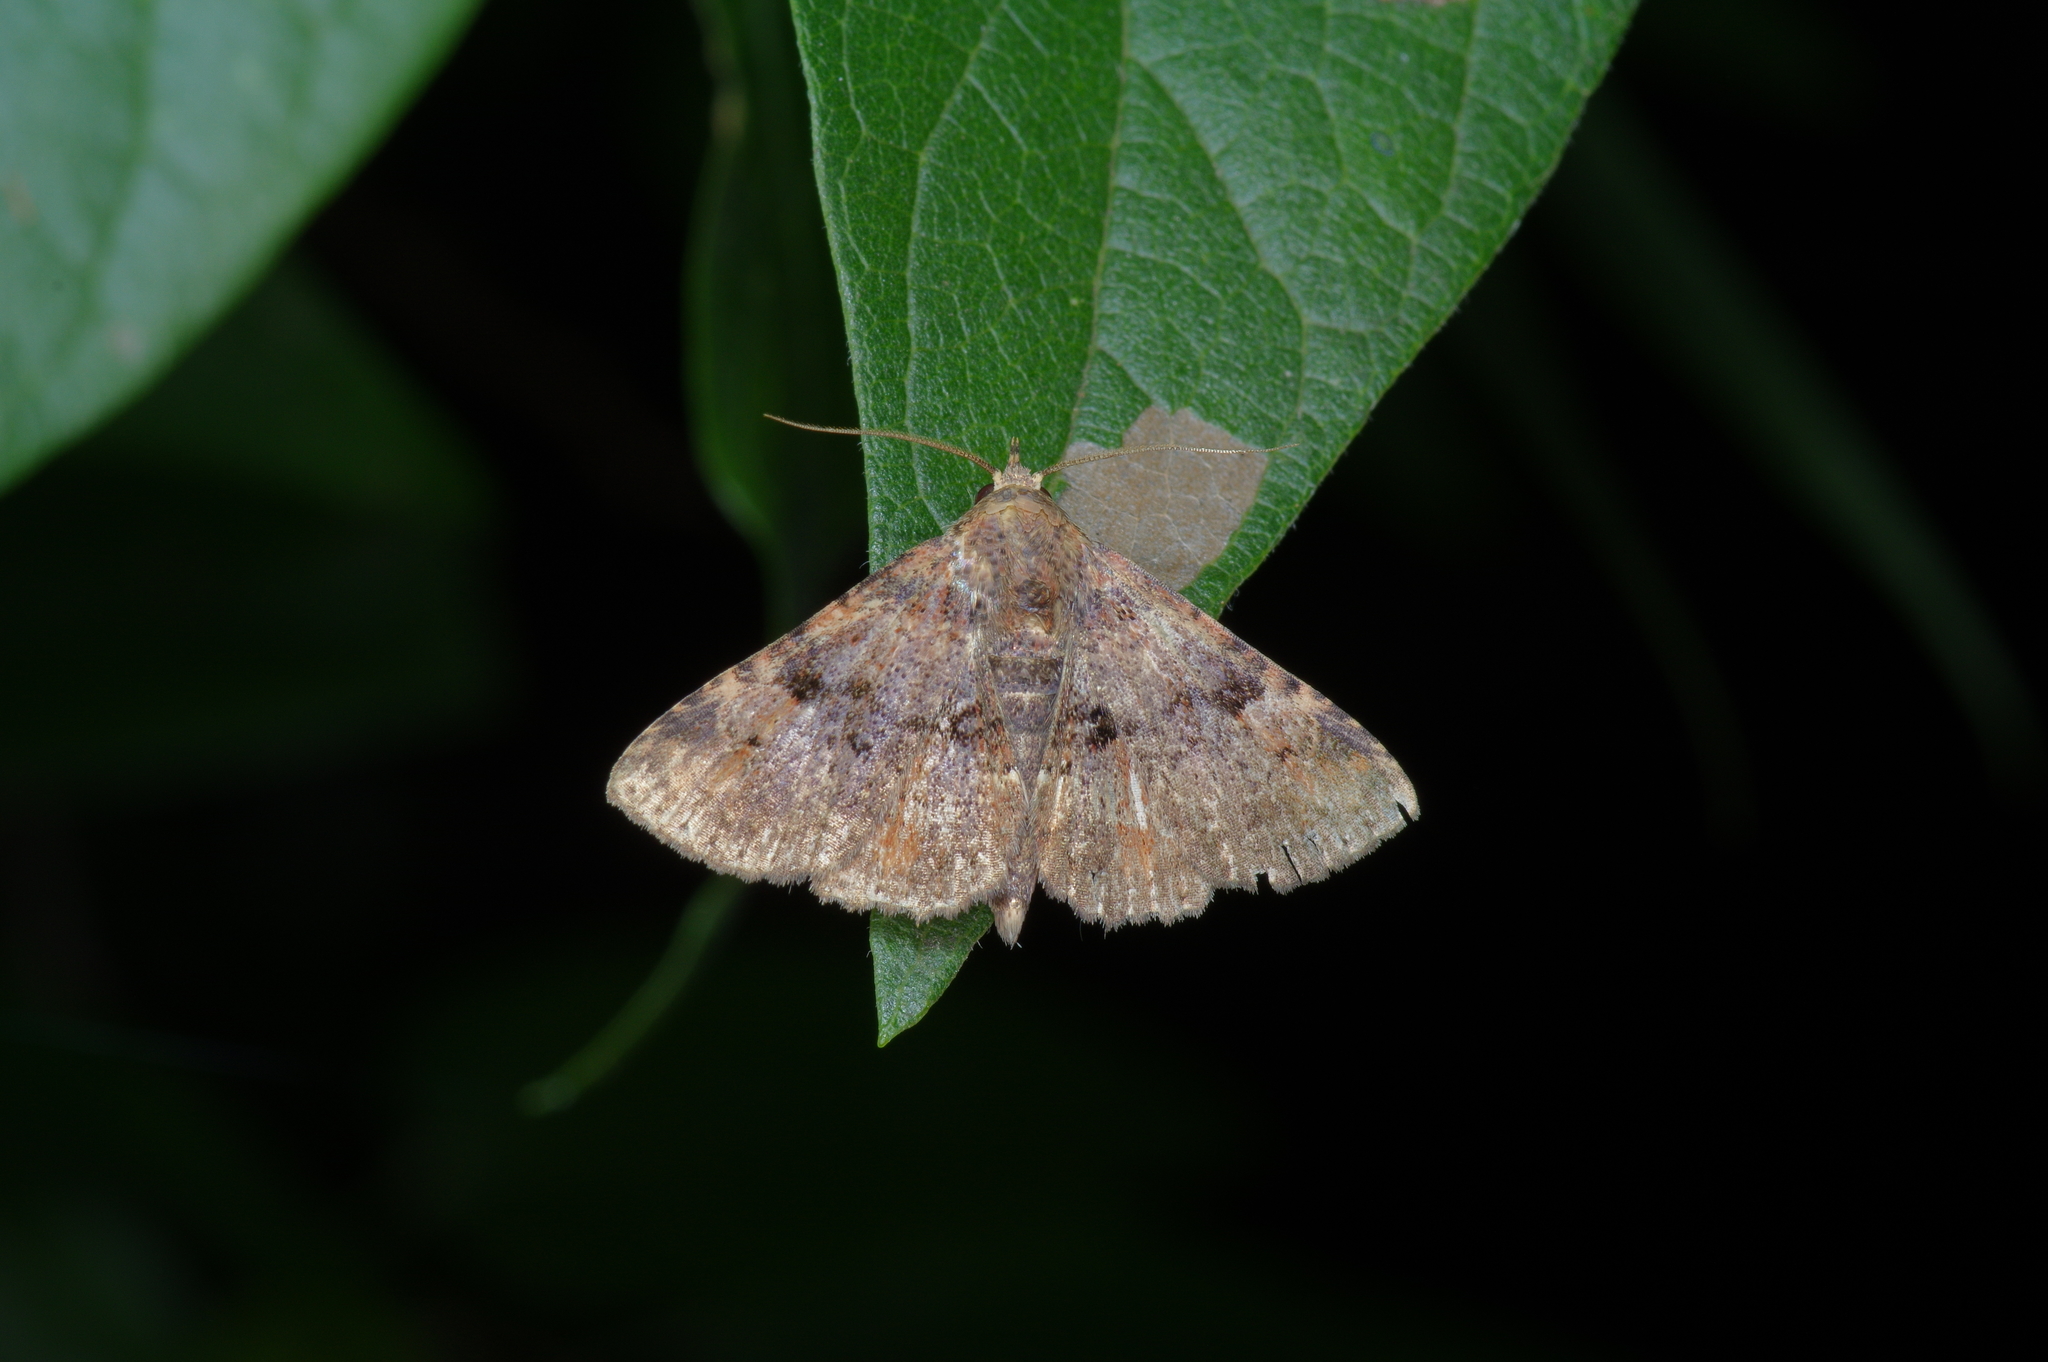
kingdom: Animalia
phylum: Arthropoda
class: Insecta
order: Lepidoptera
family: Erebidae
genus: Metalectra
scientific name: Metalectra quadrisignata
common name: Four-spotted fungus moth
